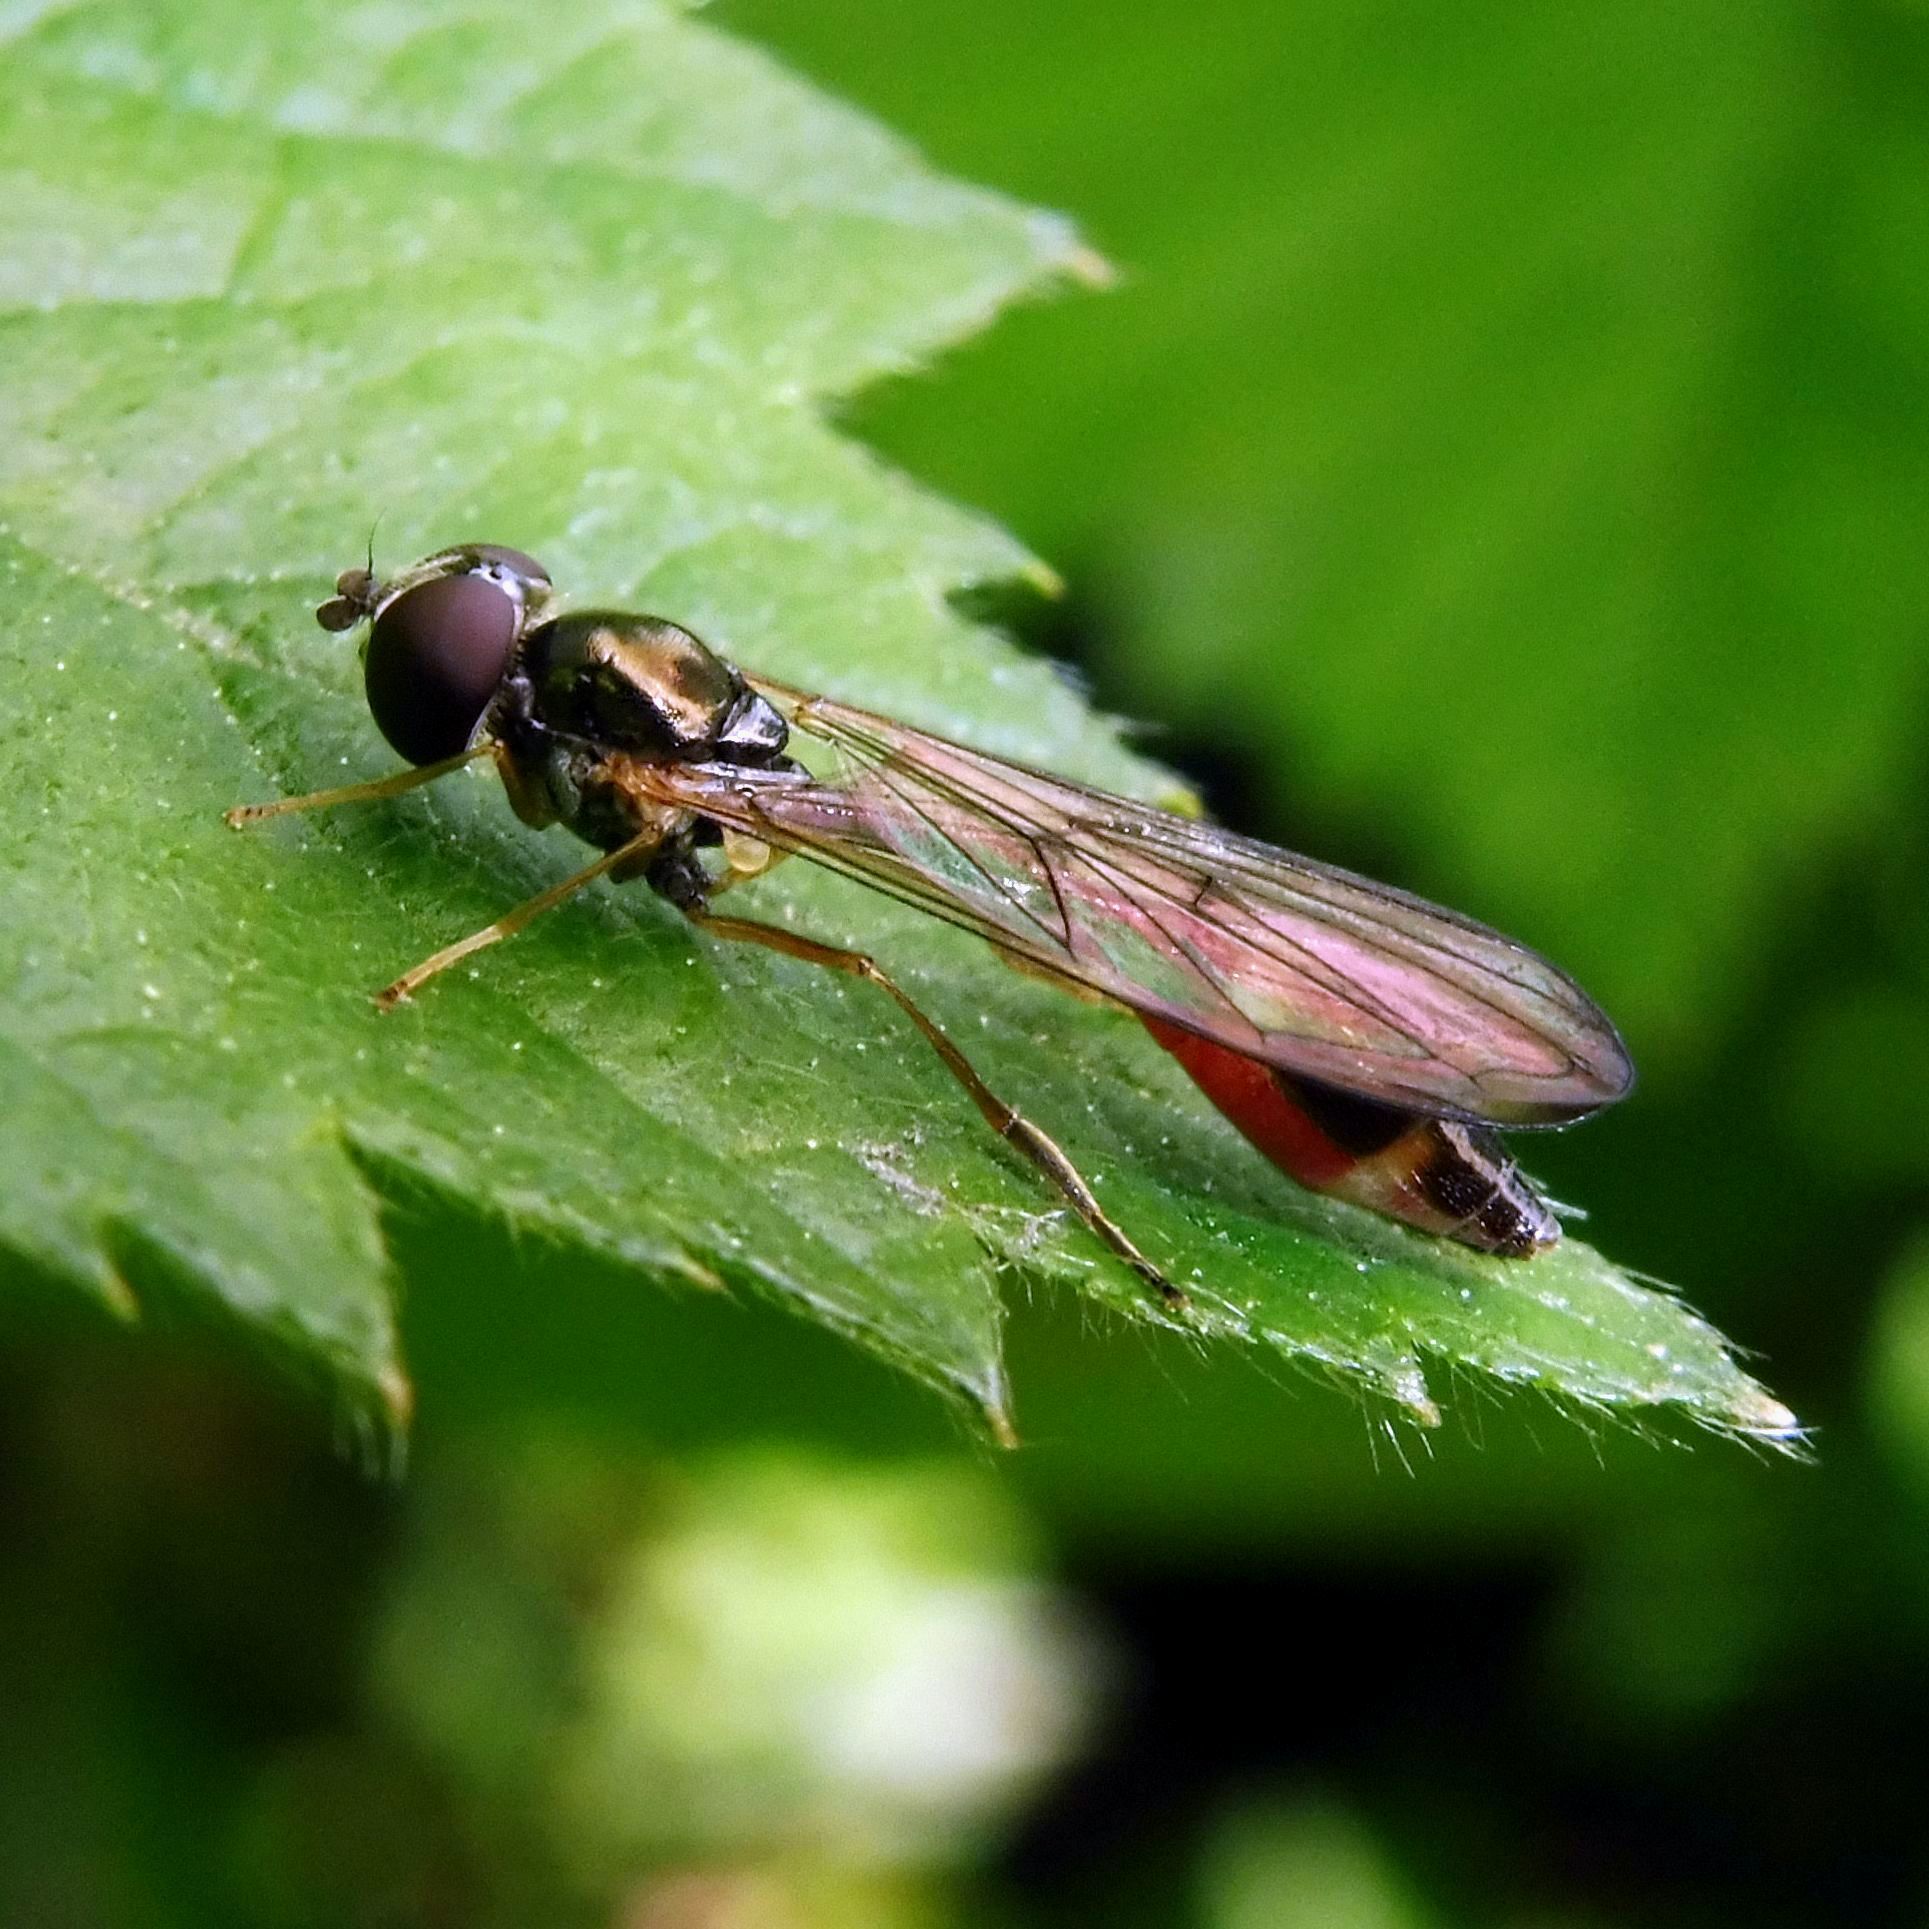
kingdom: Animalia
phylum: Arthropoda
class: Insecta
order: Diptera
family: Syrphidae
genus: Baccha
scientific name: Baccha elongata
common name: Common dainty
